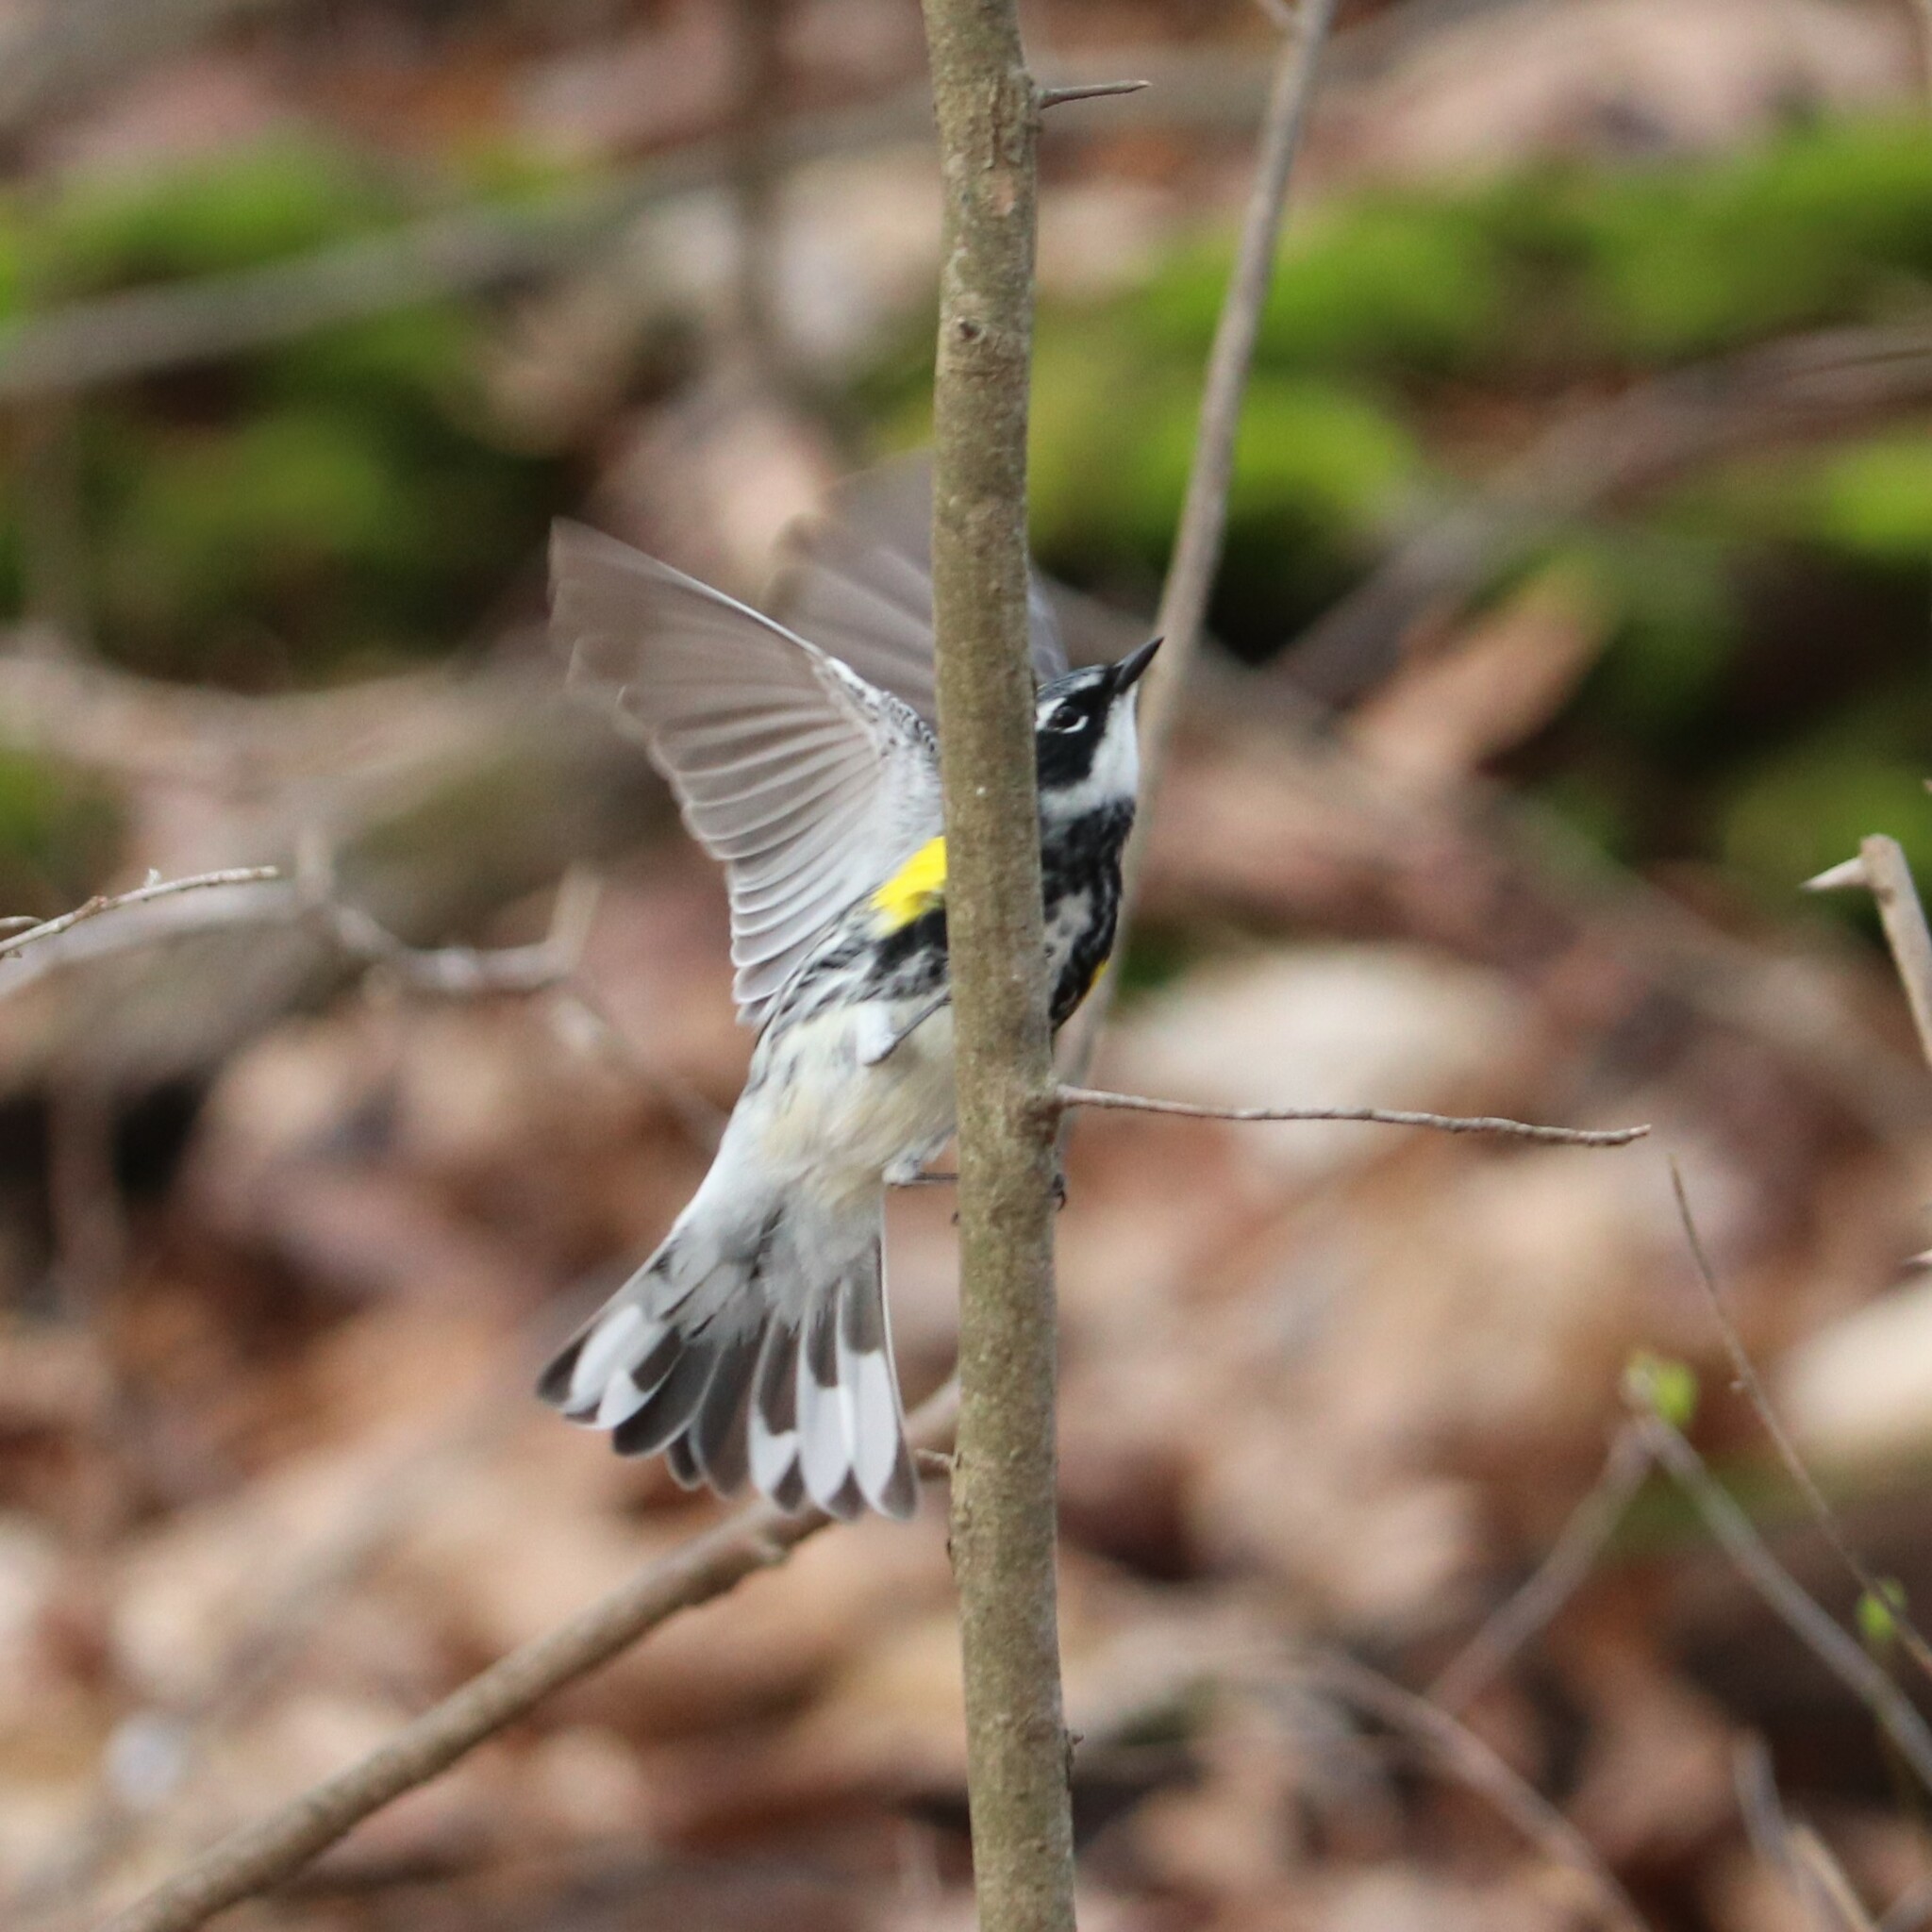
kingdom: Animalia
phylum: Chordata
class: Aves
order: Passeriformes
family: Parulidae
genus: Setophaga
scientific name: Setophaga coronata
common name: Myrtle warbler
